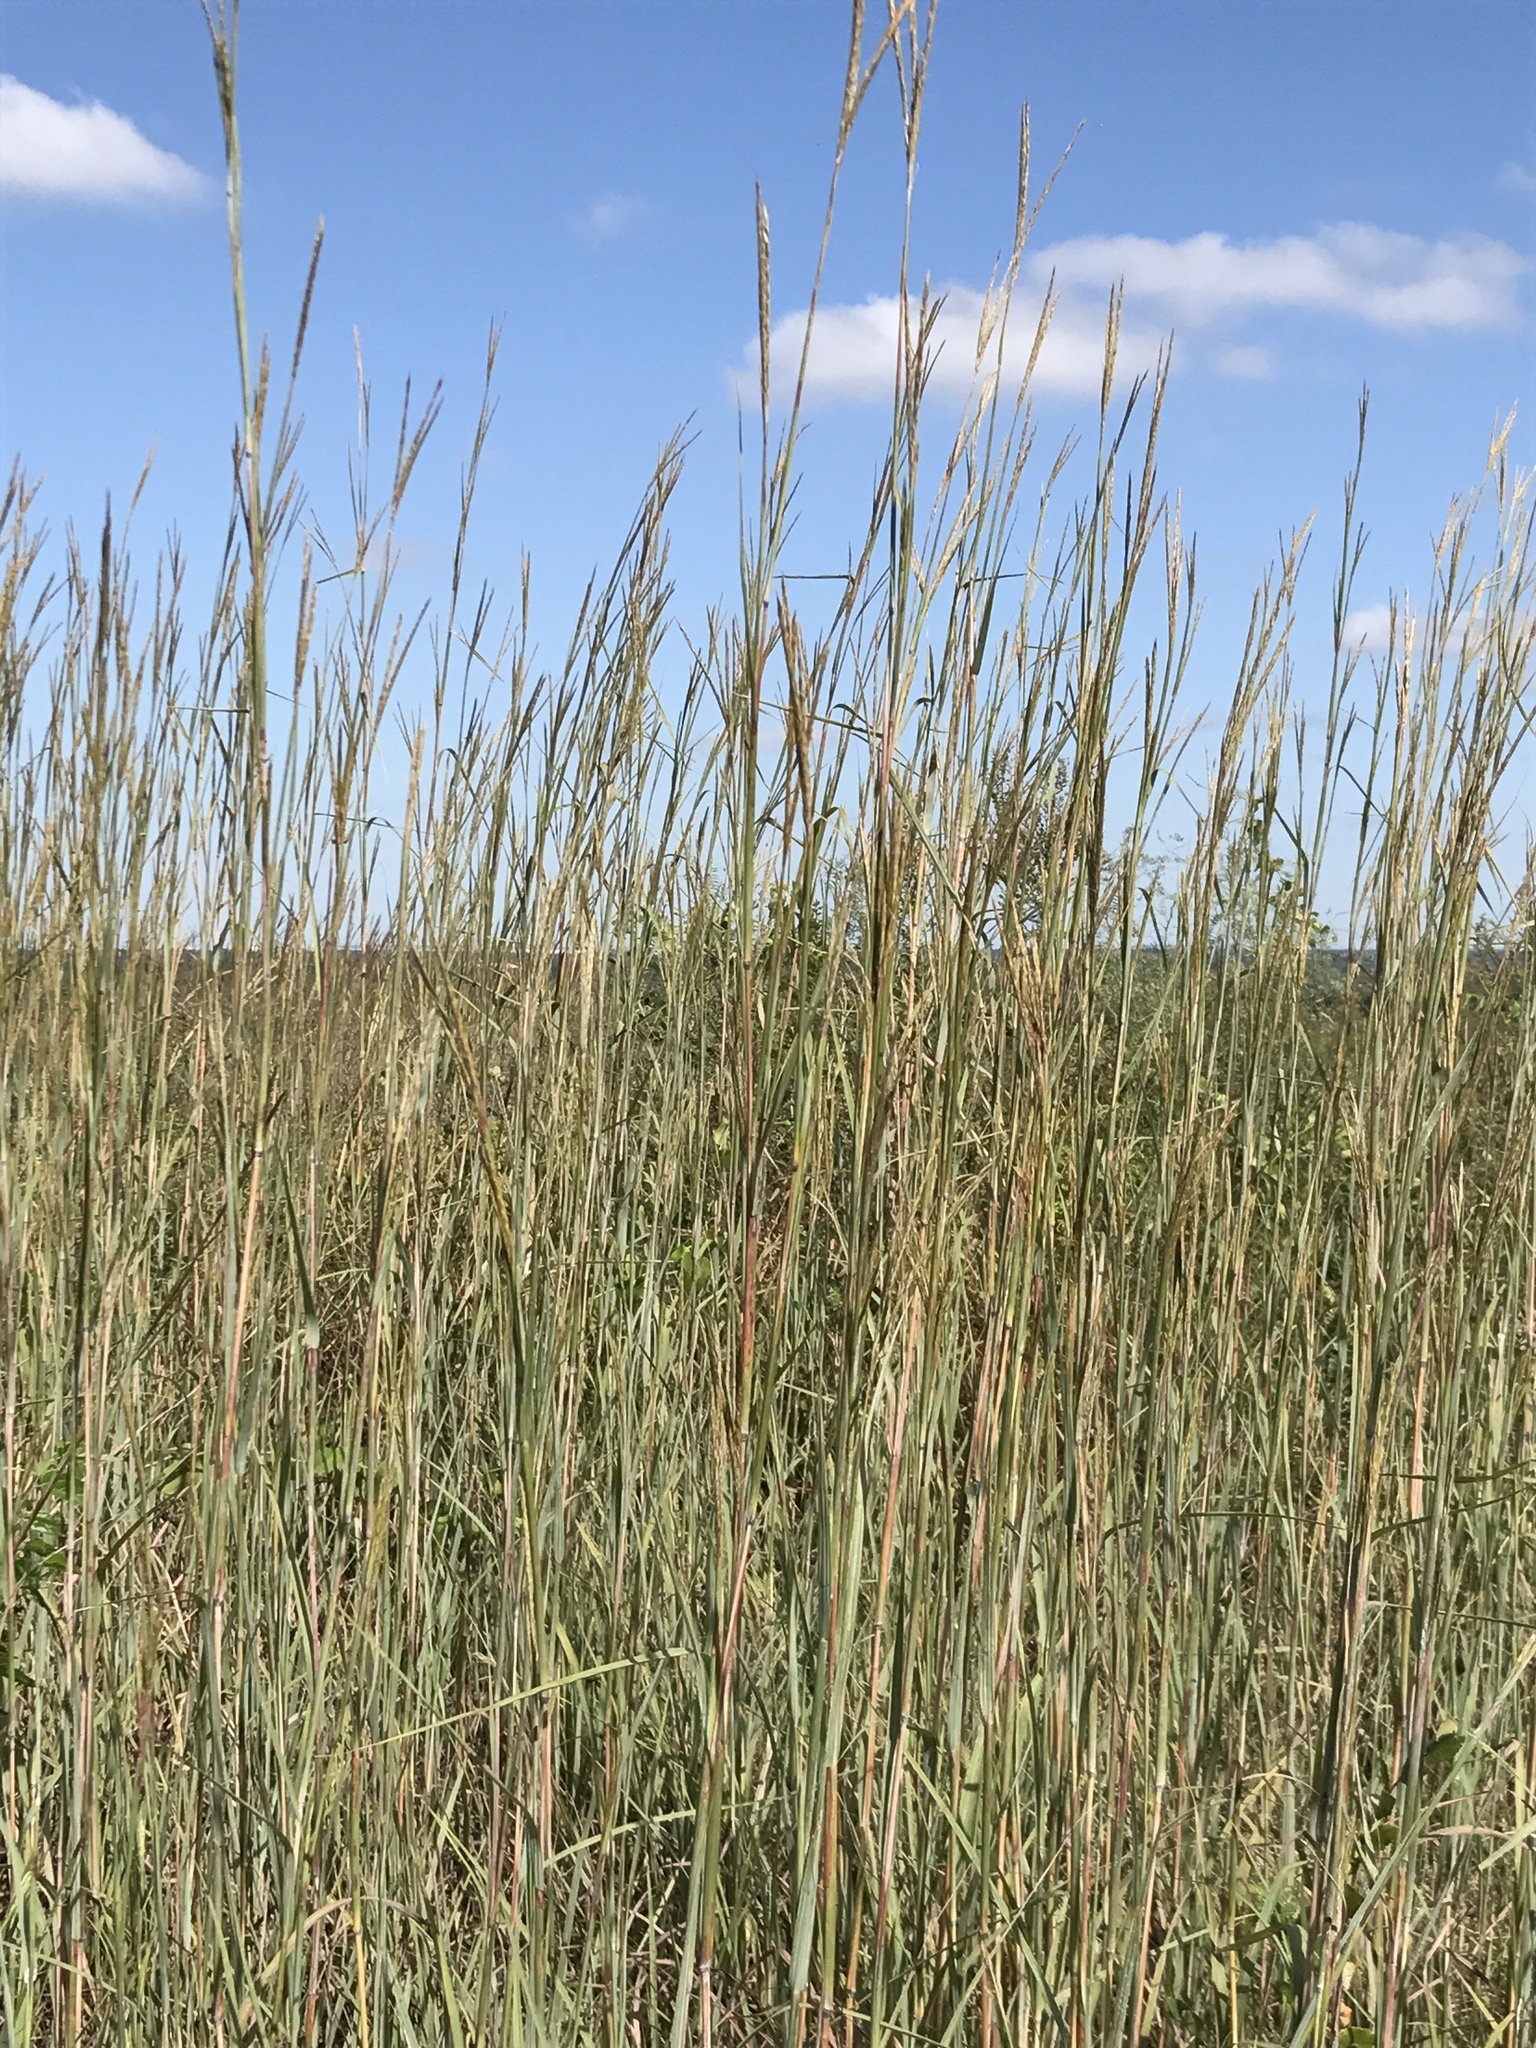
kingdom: Plantae
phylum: Tracheophyta
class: Liliopsida
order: Poales
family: Poaceae
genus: Andropogon
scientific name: Andropogon gerardi
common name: Big bluestem
